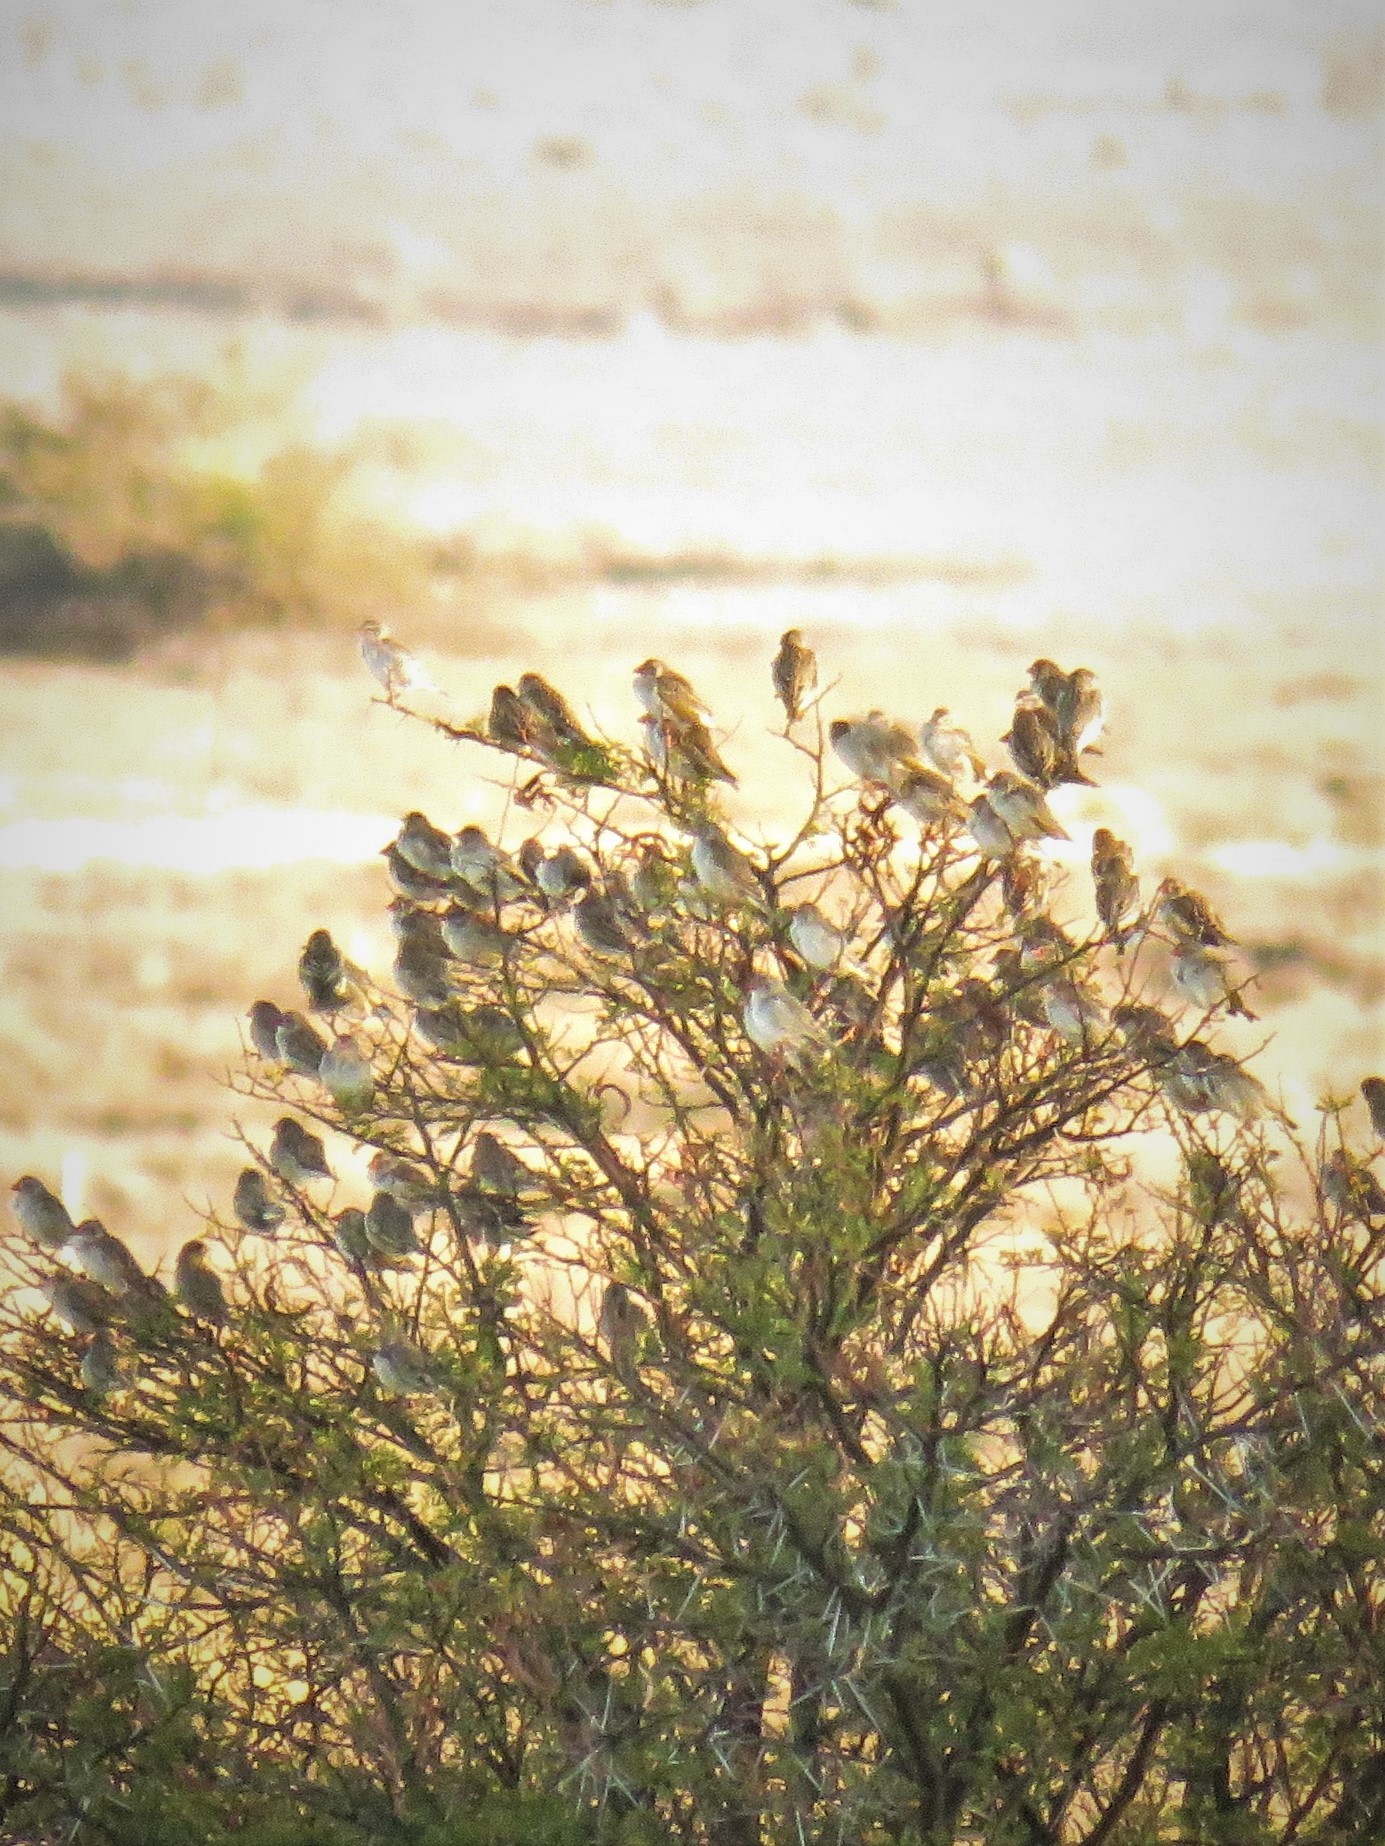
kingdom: Animalia
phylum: Chordata
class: Aves
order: Passeriformes
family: Ploceidae
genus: Quelea
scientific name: Quelea quelea
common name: Red-billed quelea
